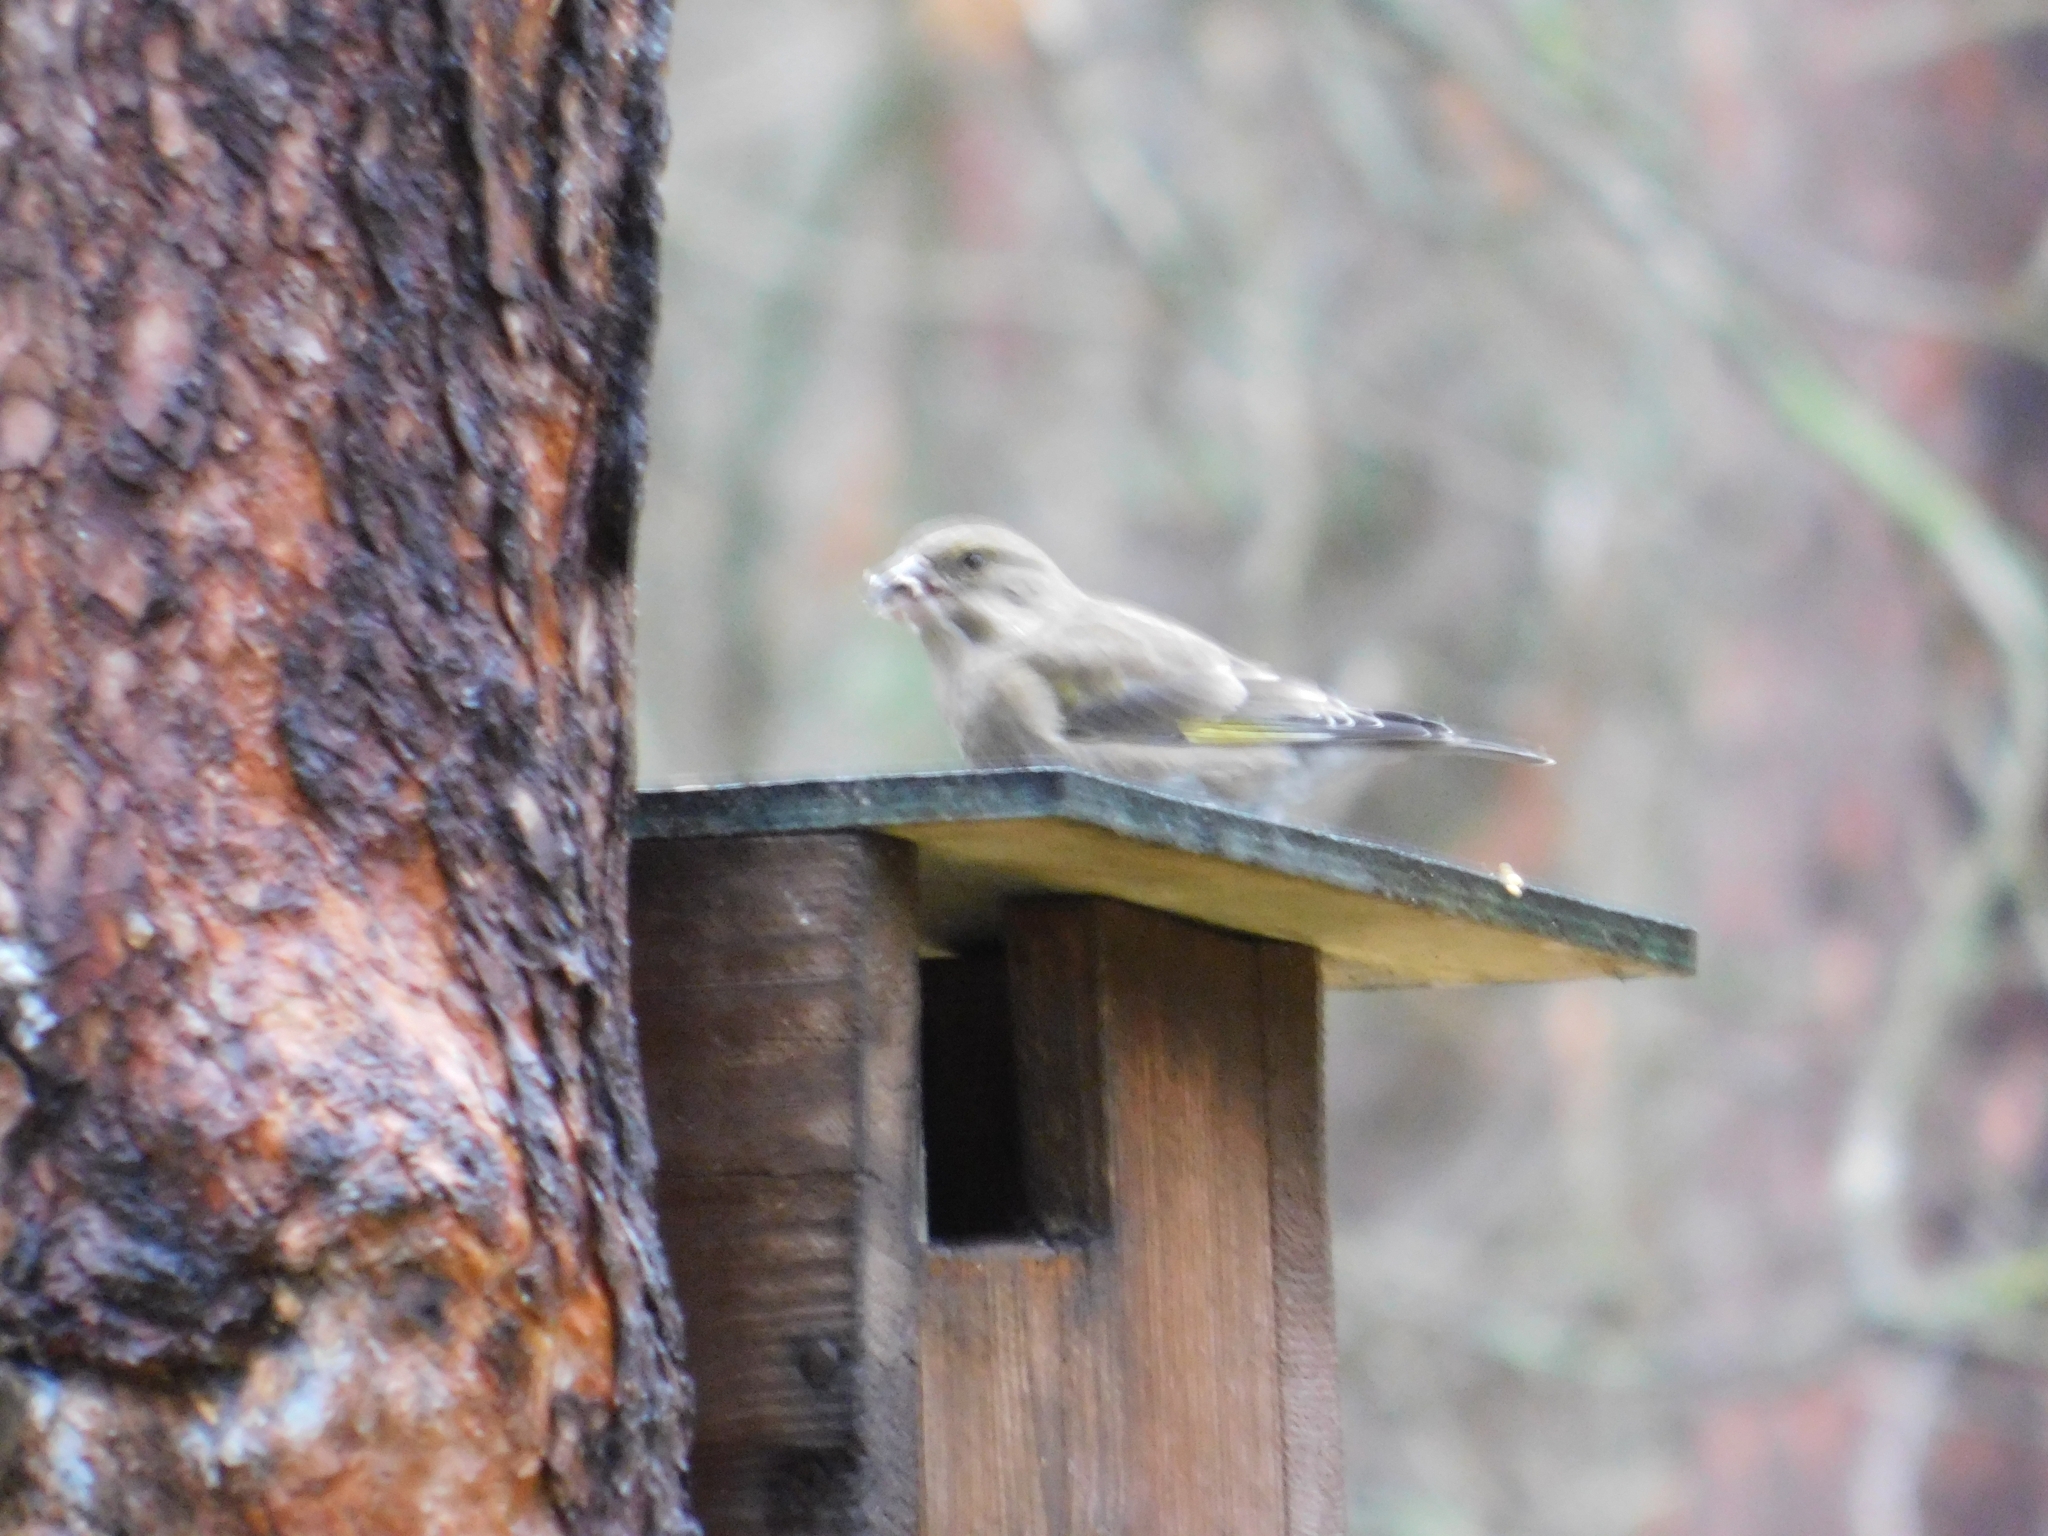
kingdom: Plantae
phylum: Tracheophyta
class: Liliopsida
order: Poales
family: Poaceae
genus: Chloris
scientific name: Chloris chloris
